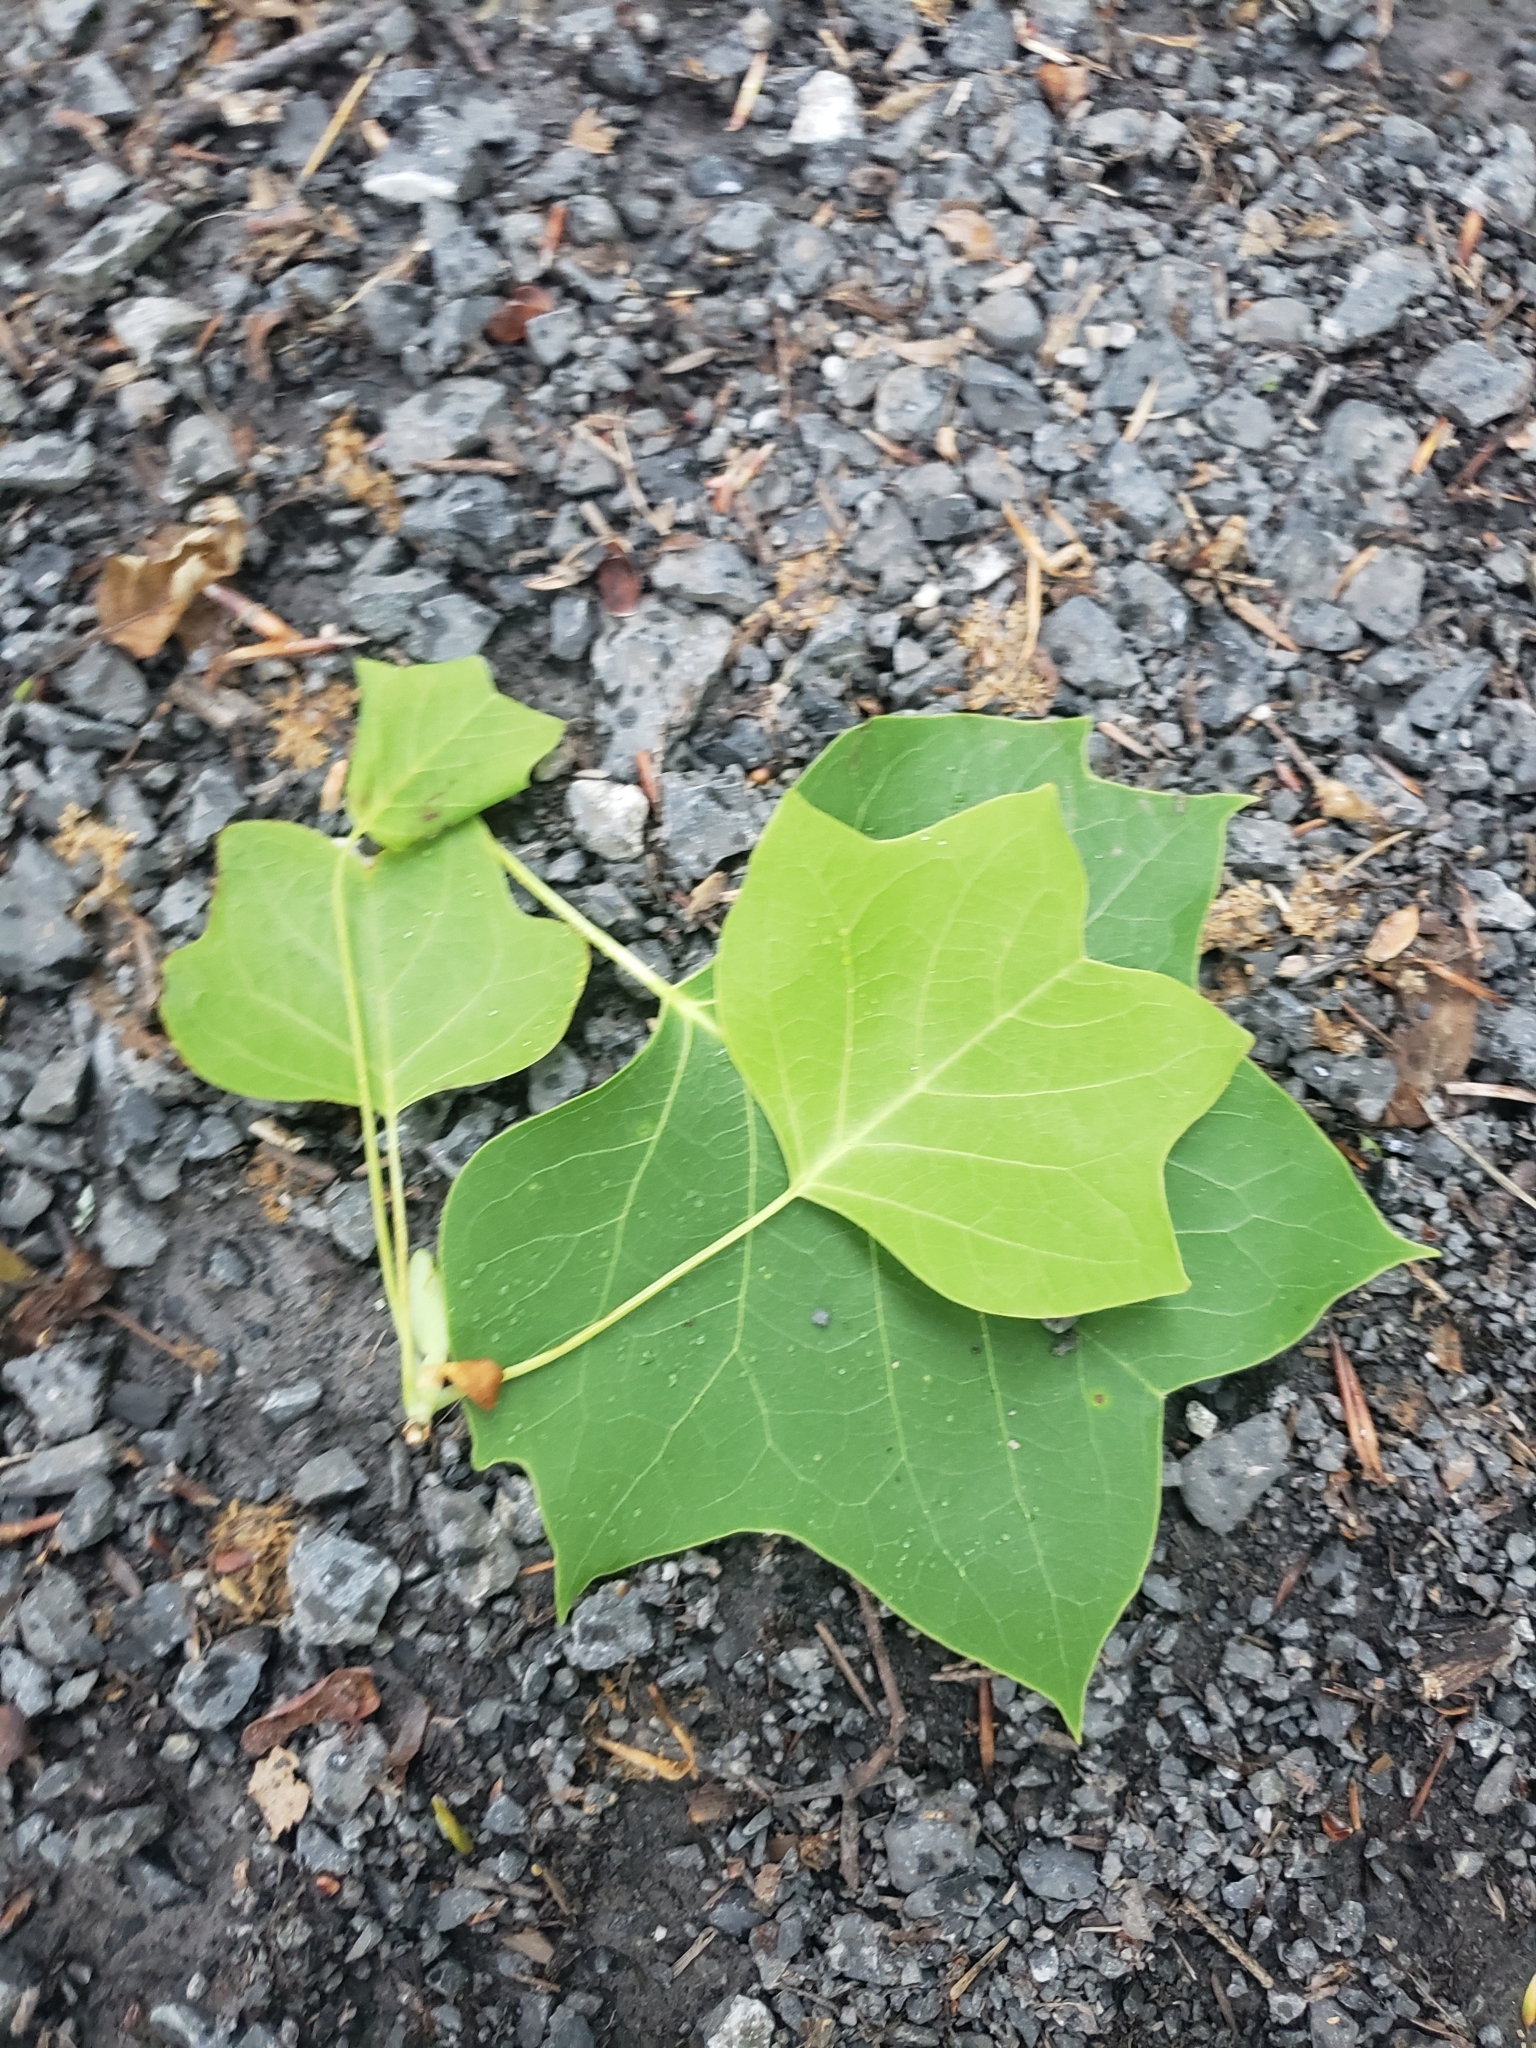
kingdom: Plantae
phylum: Tracheophyta
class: Magnoliopsida
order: Magnoliales
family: Magnoliaceae
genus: Liriodendron
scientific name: Liriodendron tulipifera
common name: Tulip tree
